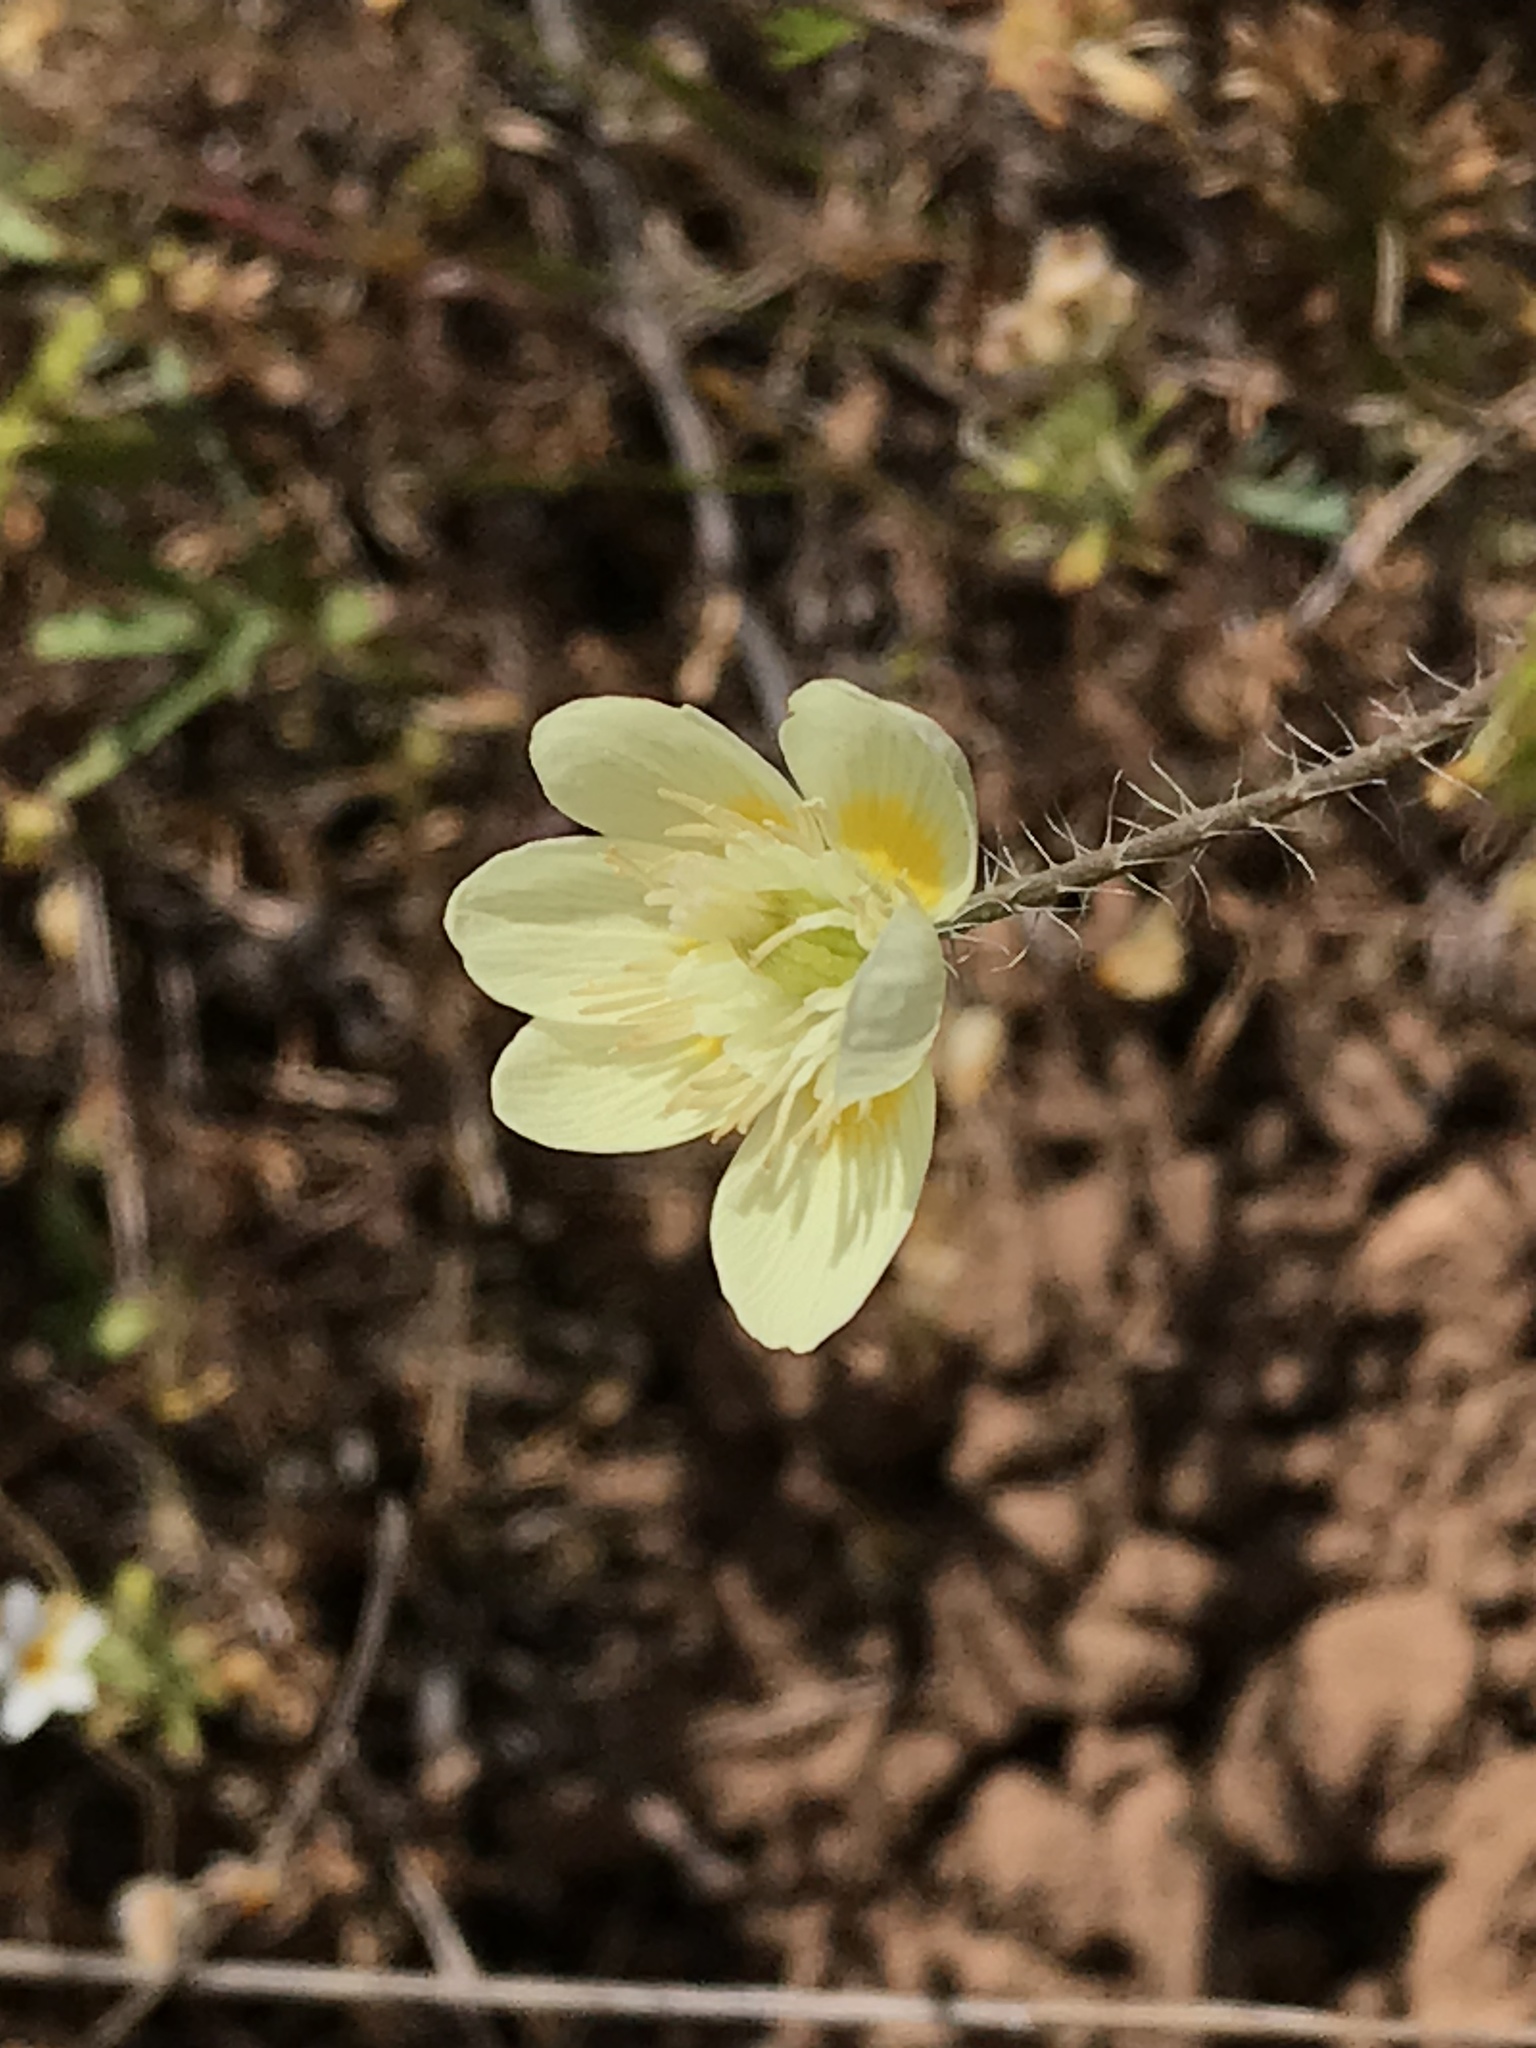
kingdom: Plantae
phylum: Tracheophyta
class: Magnoliopsida
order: Ranunculales
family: Papaveraceae
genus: Platystemon
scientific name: Platystemon californicus
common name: Cream-cups
